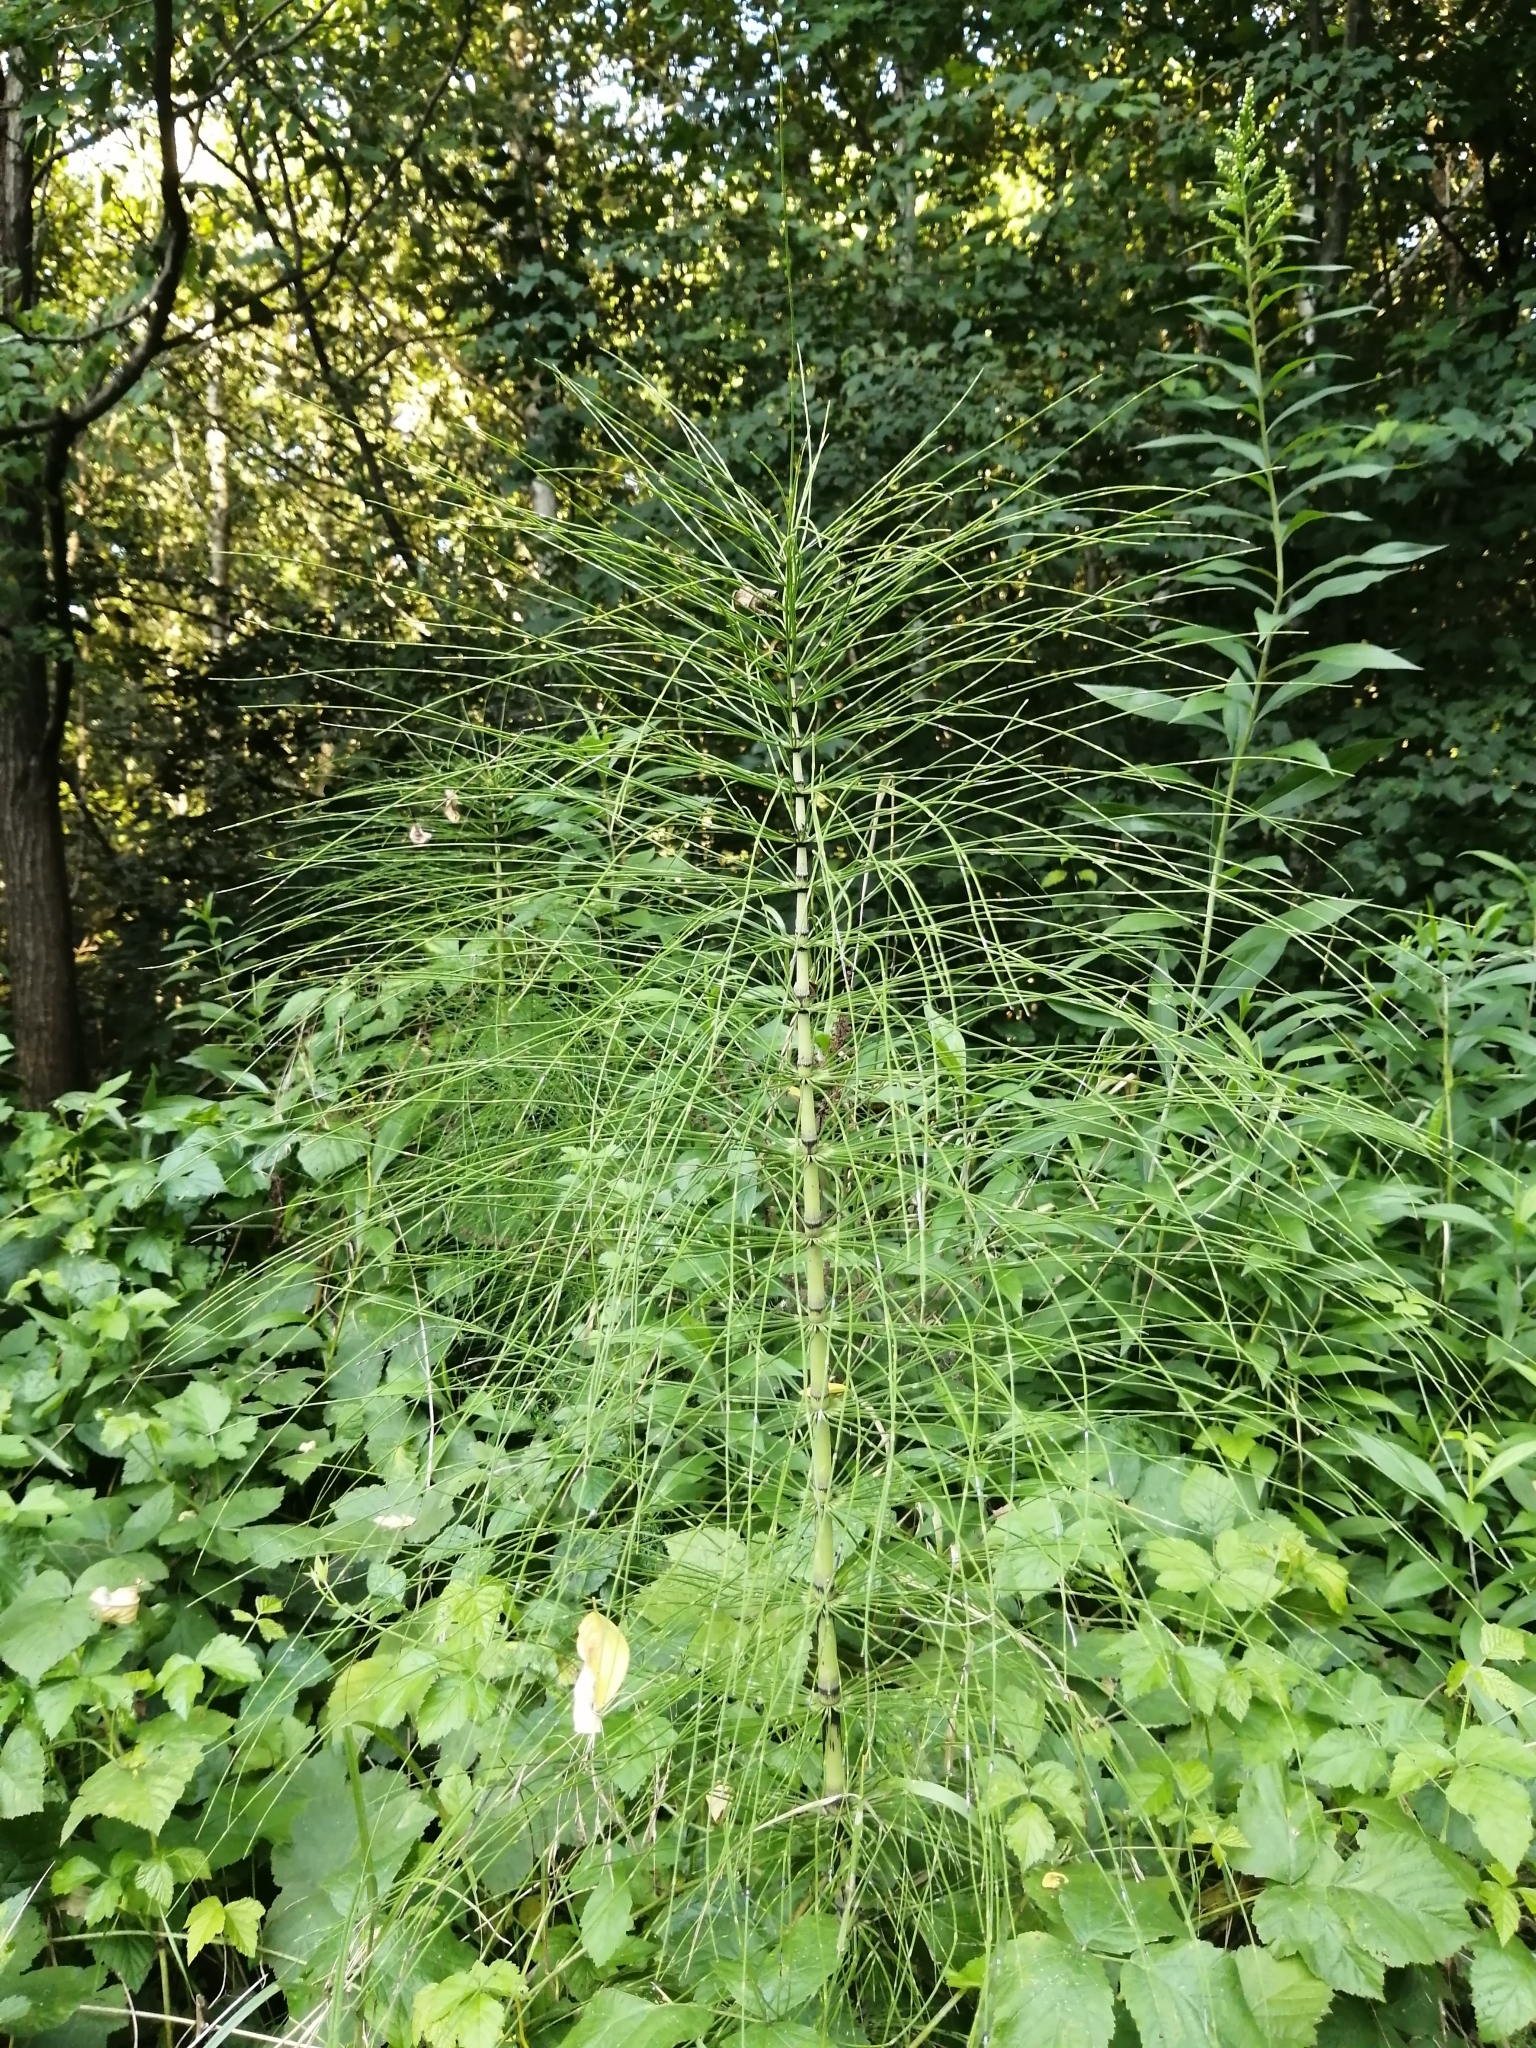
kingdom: Plantae
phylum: Tracheophyta
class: Polypodiopsida
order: Equisetales
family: Equisetaceae
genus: Equisetum
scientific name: Equisetum telmateia
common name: Great horsetail
